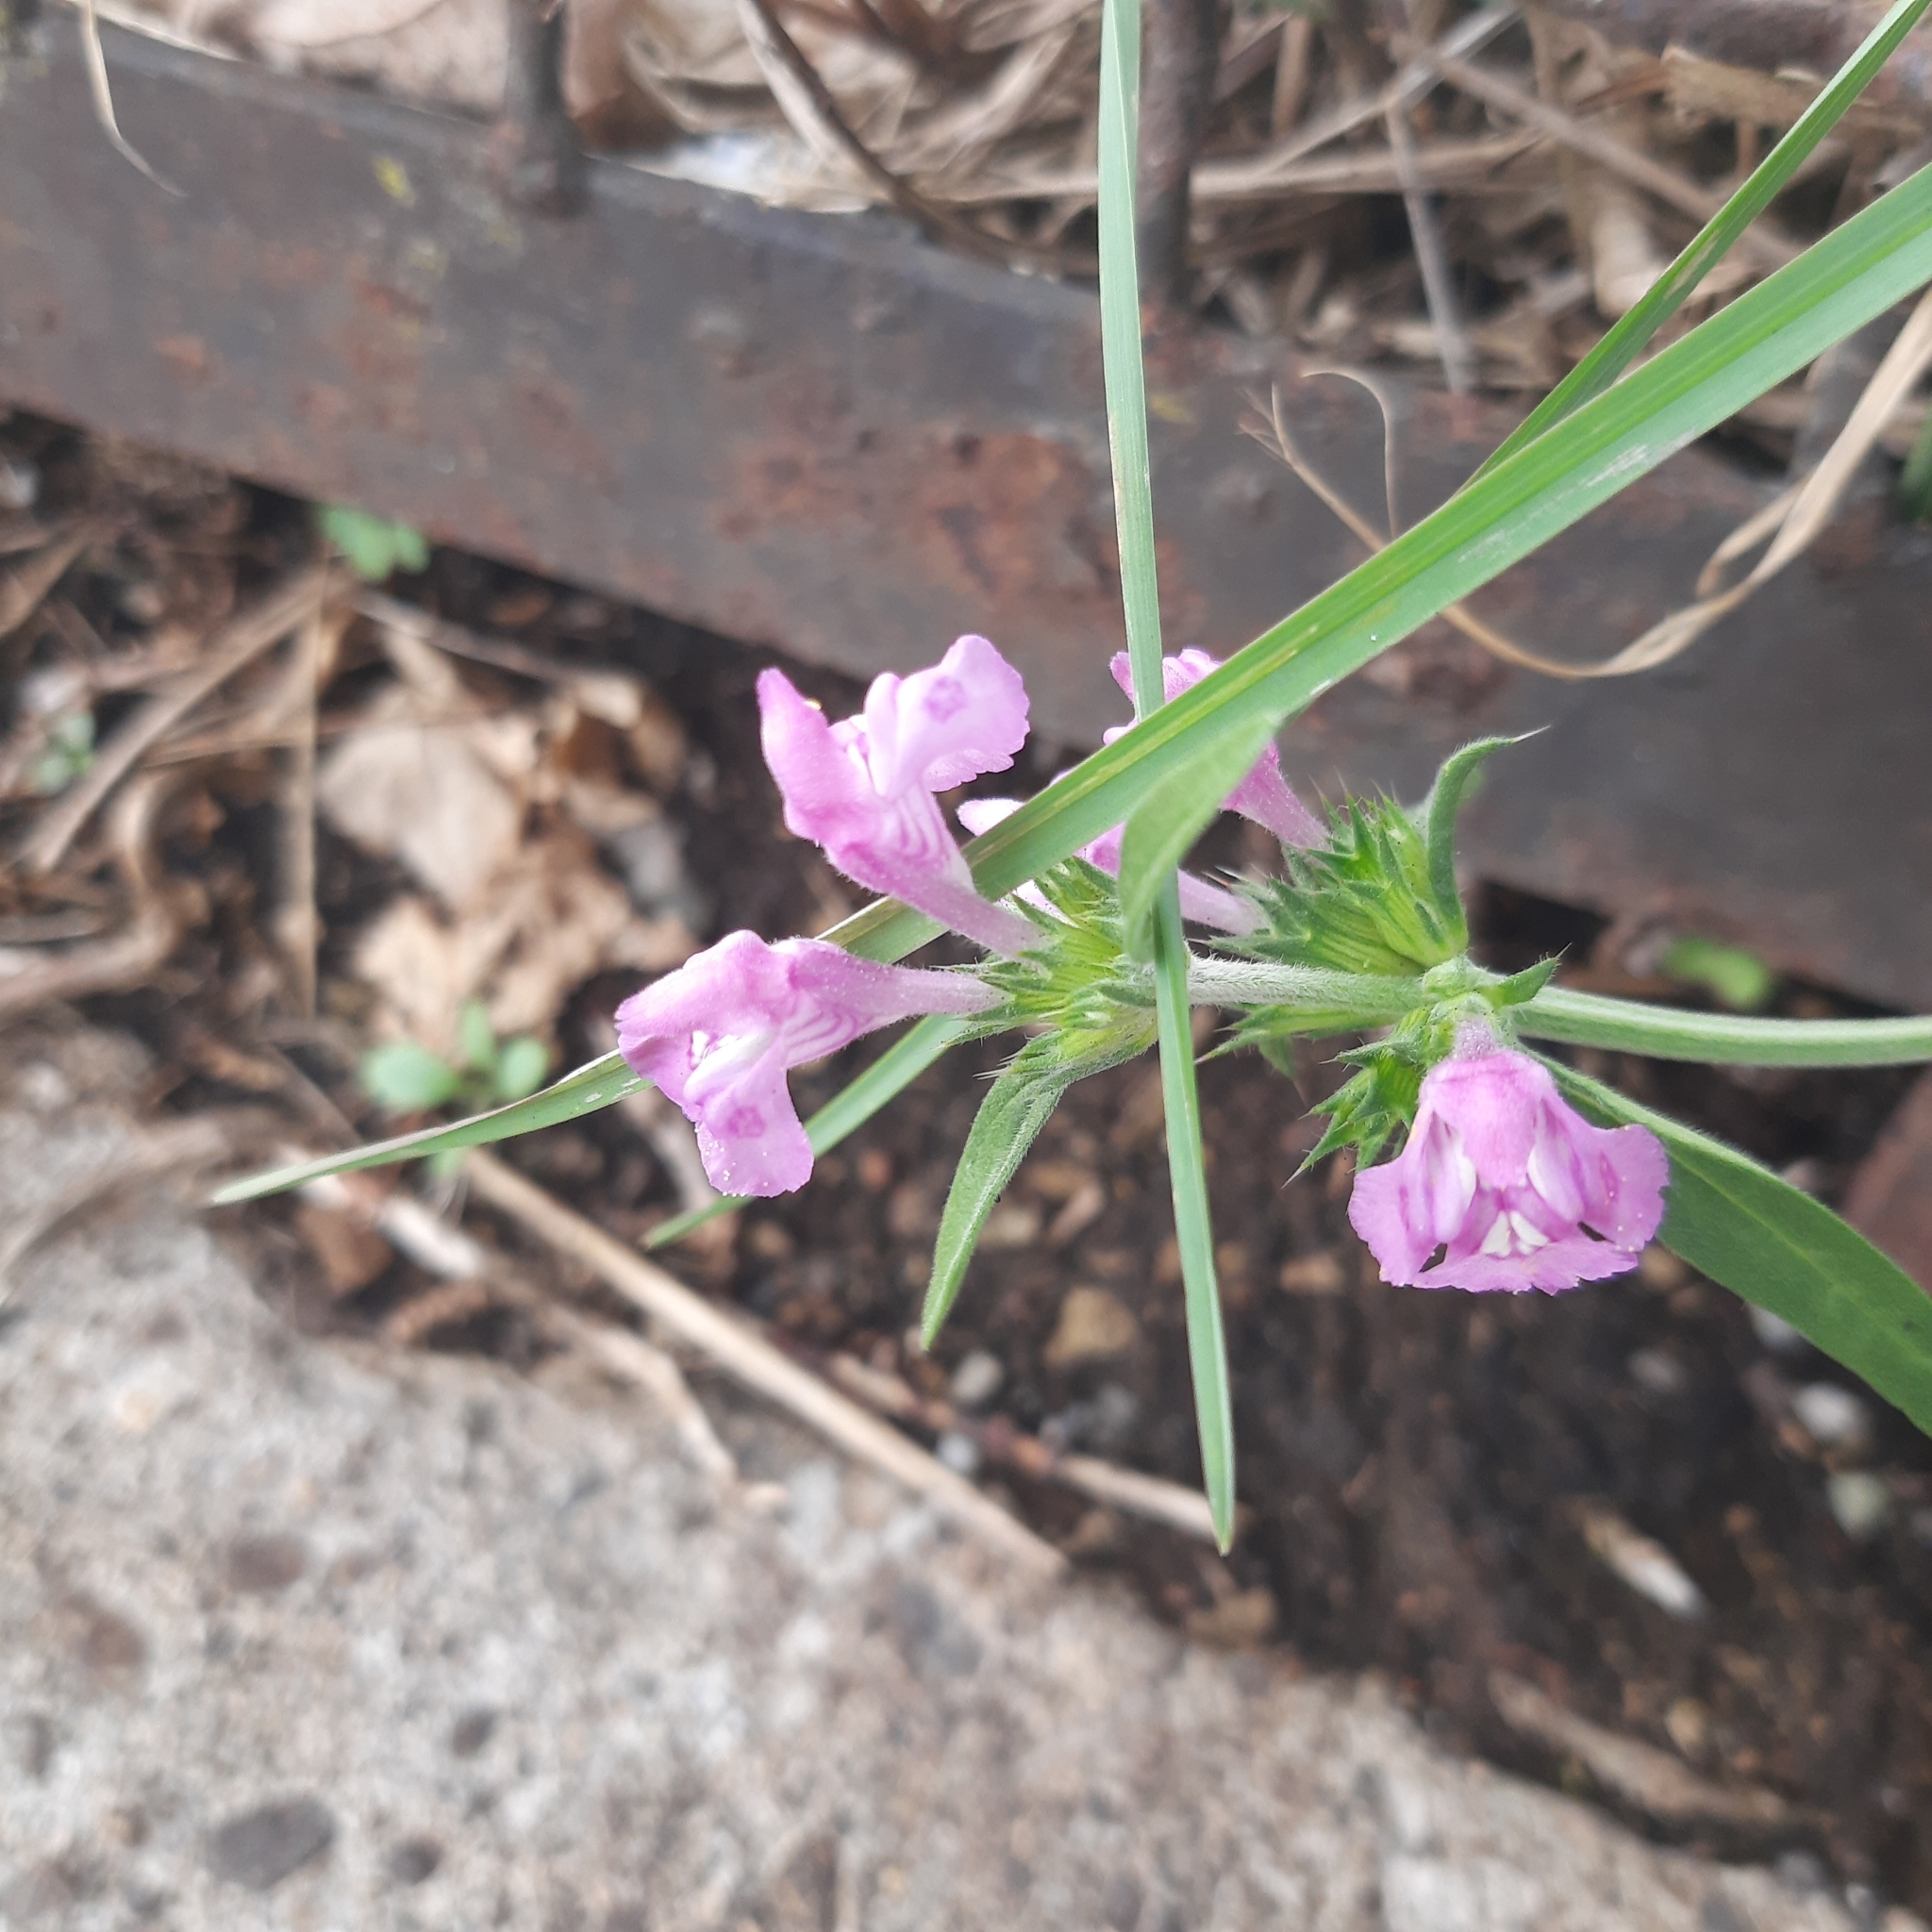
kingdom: Plantae
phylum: Tracheophyta
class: Magnoliopsida
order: Lamiales
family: Lamiaceae
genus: Galeopsis
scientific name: Galeopsis angustifolia
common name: Red hemp-nettle
